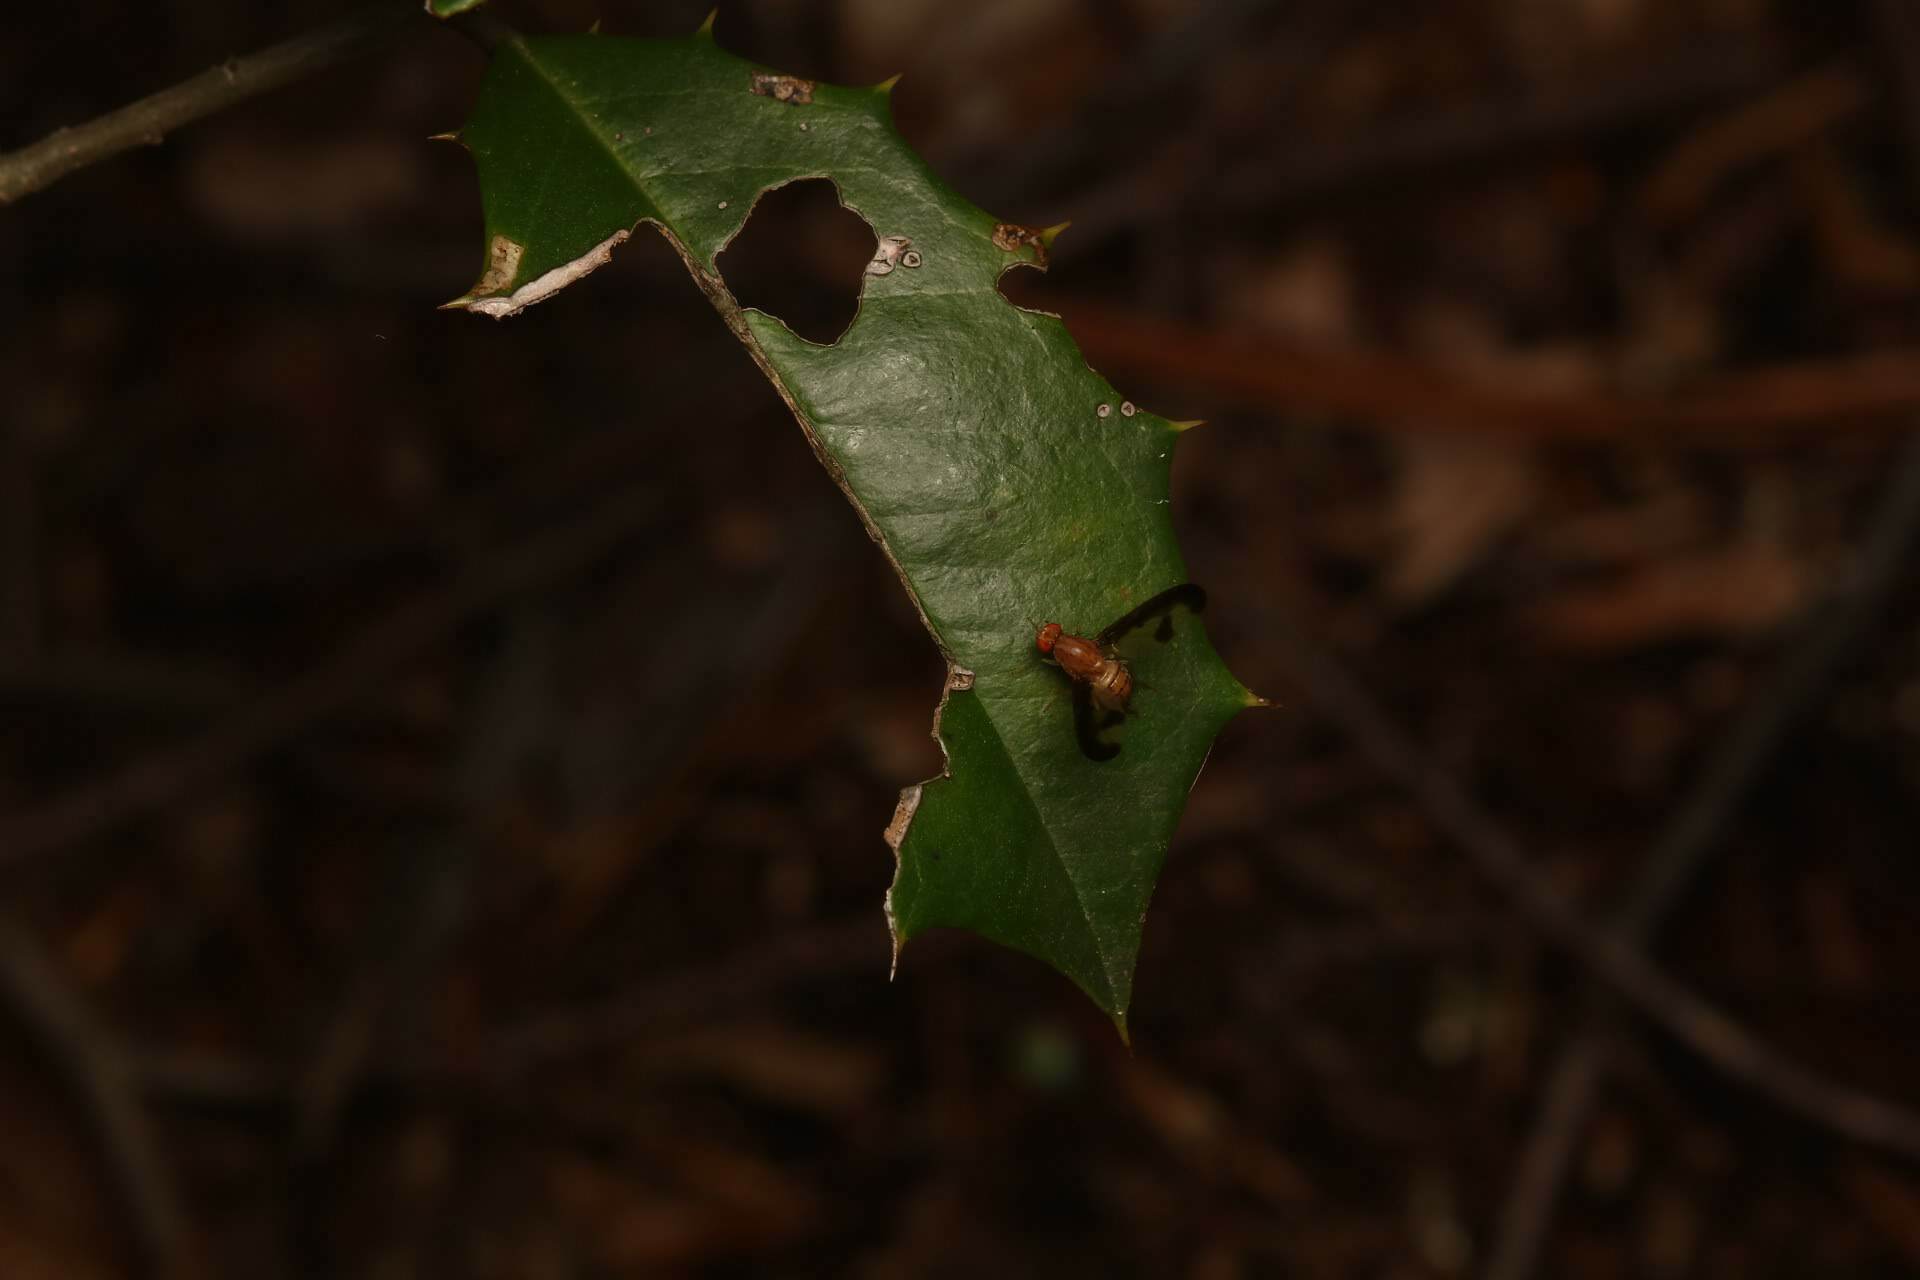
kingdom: Animalia
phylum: Arthropoda
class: Insecta
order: Diptera
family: Pallopteridae
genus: Toxonevra
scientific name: Toxonevra superba
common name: Antlered flutter fly
